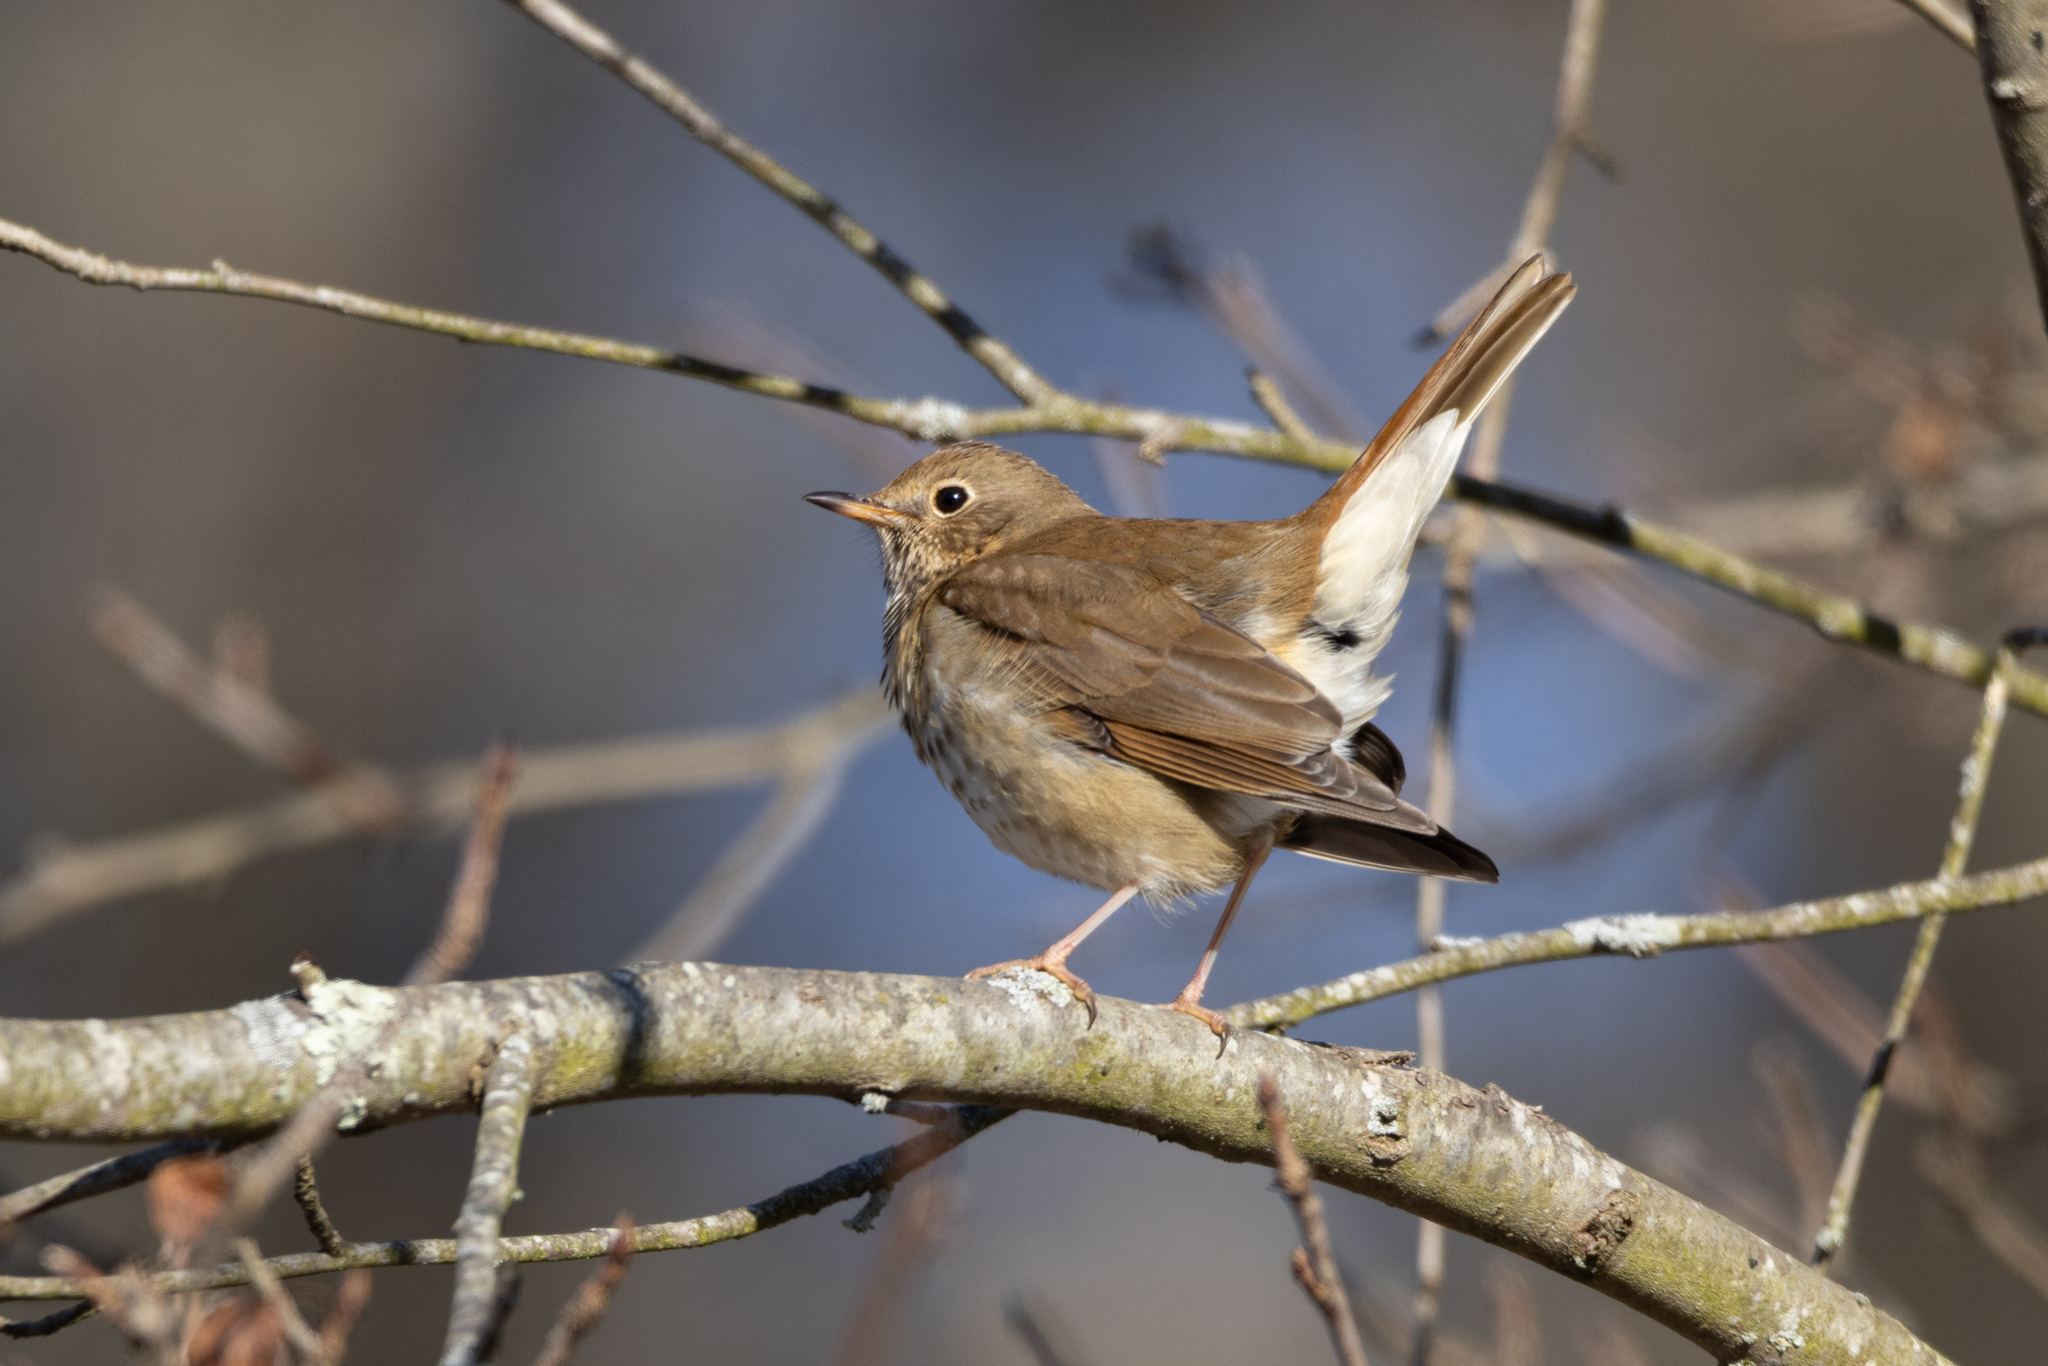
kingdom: Animalia
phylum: Chordata
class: Aves
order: Passeriformes
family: Turdidae
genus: Catharus
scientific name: Catharus guttatus
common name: Hermit thrush
